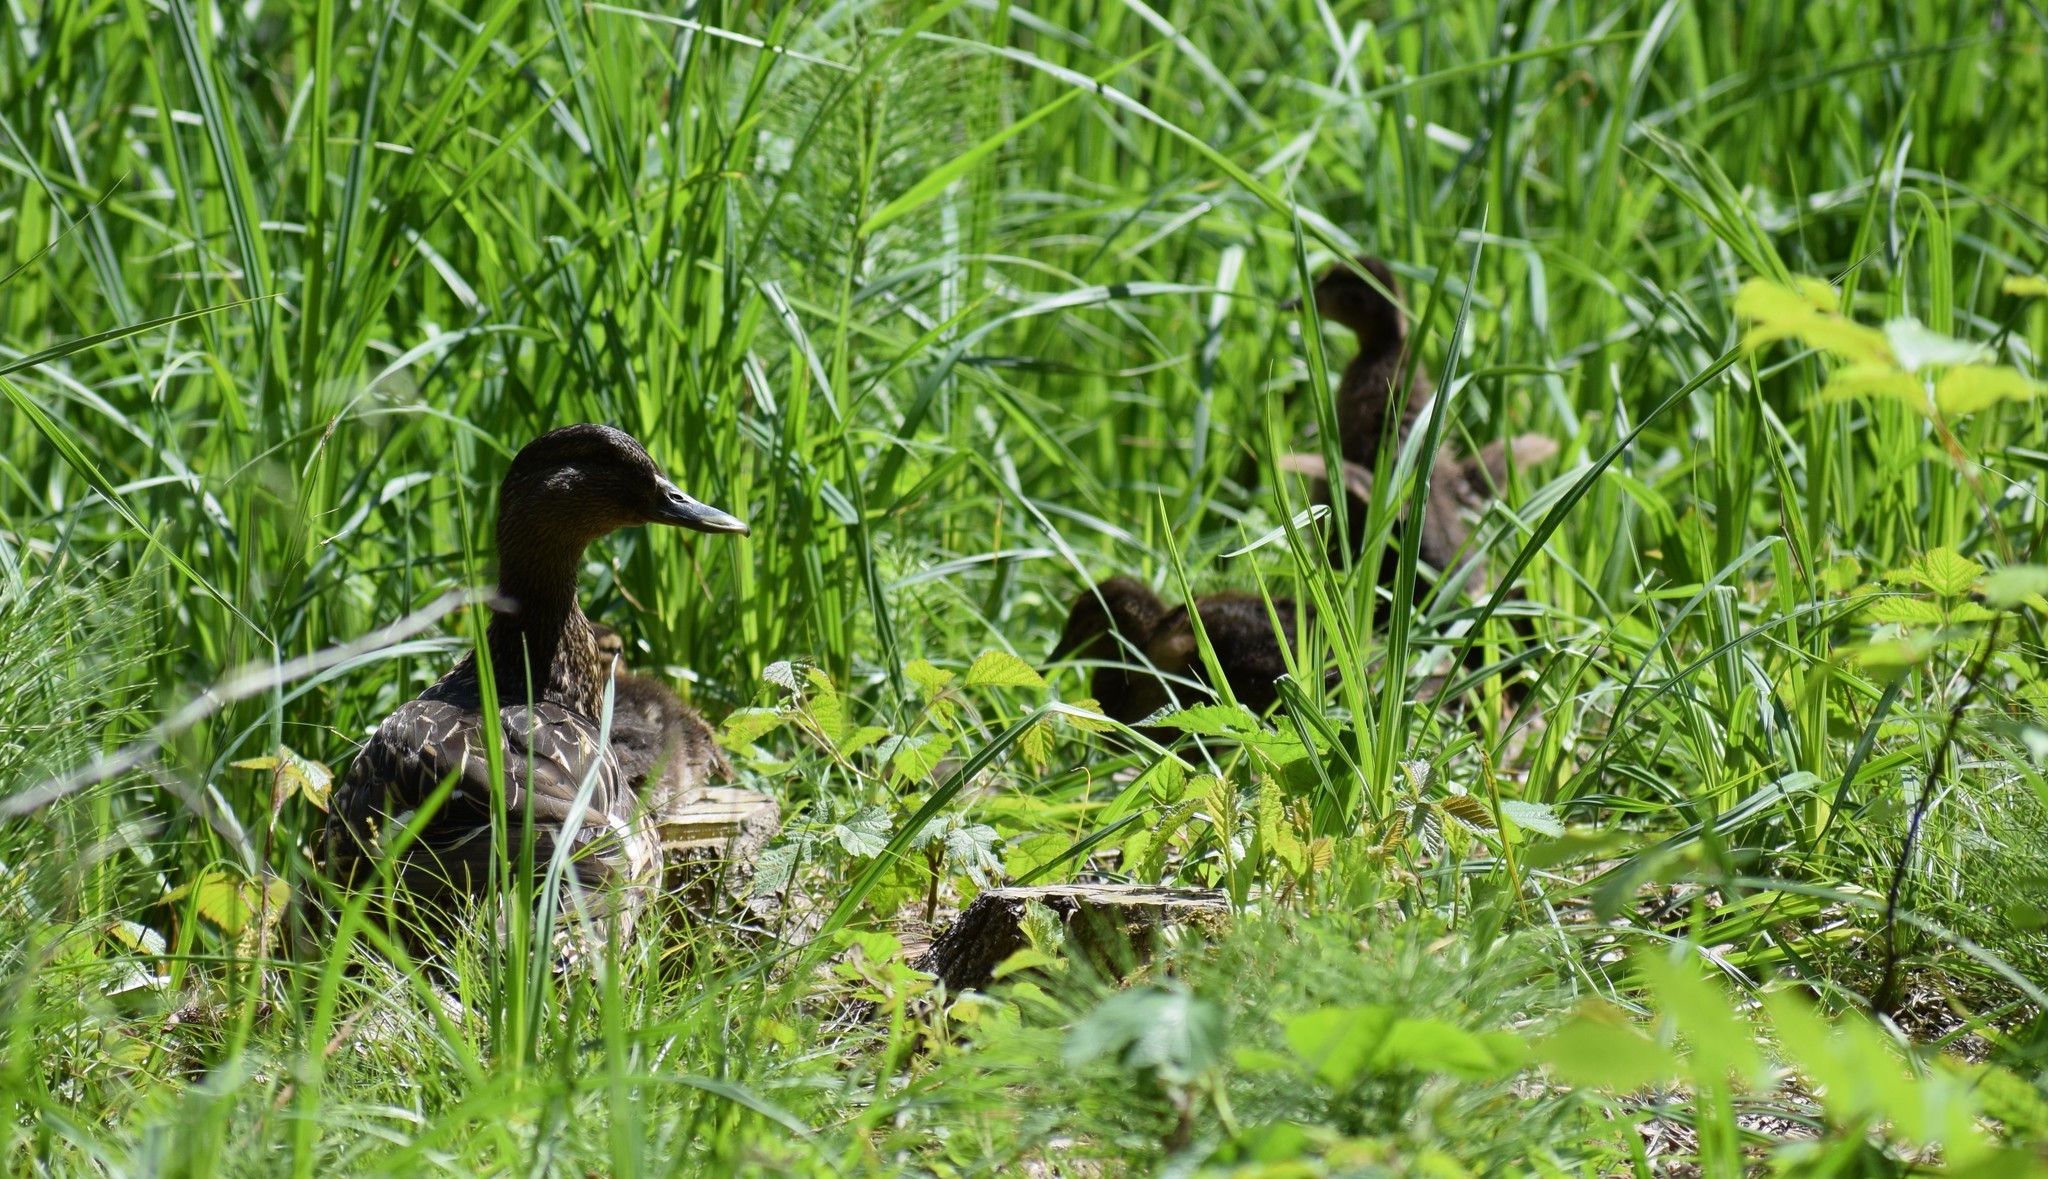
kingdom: Animalia
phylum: Chordata
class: Aves
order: Anseriformes
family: Anatidae
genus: Anas
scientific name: Anas platyrhynchos
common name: Mallard
